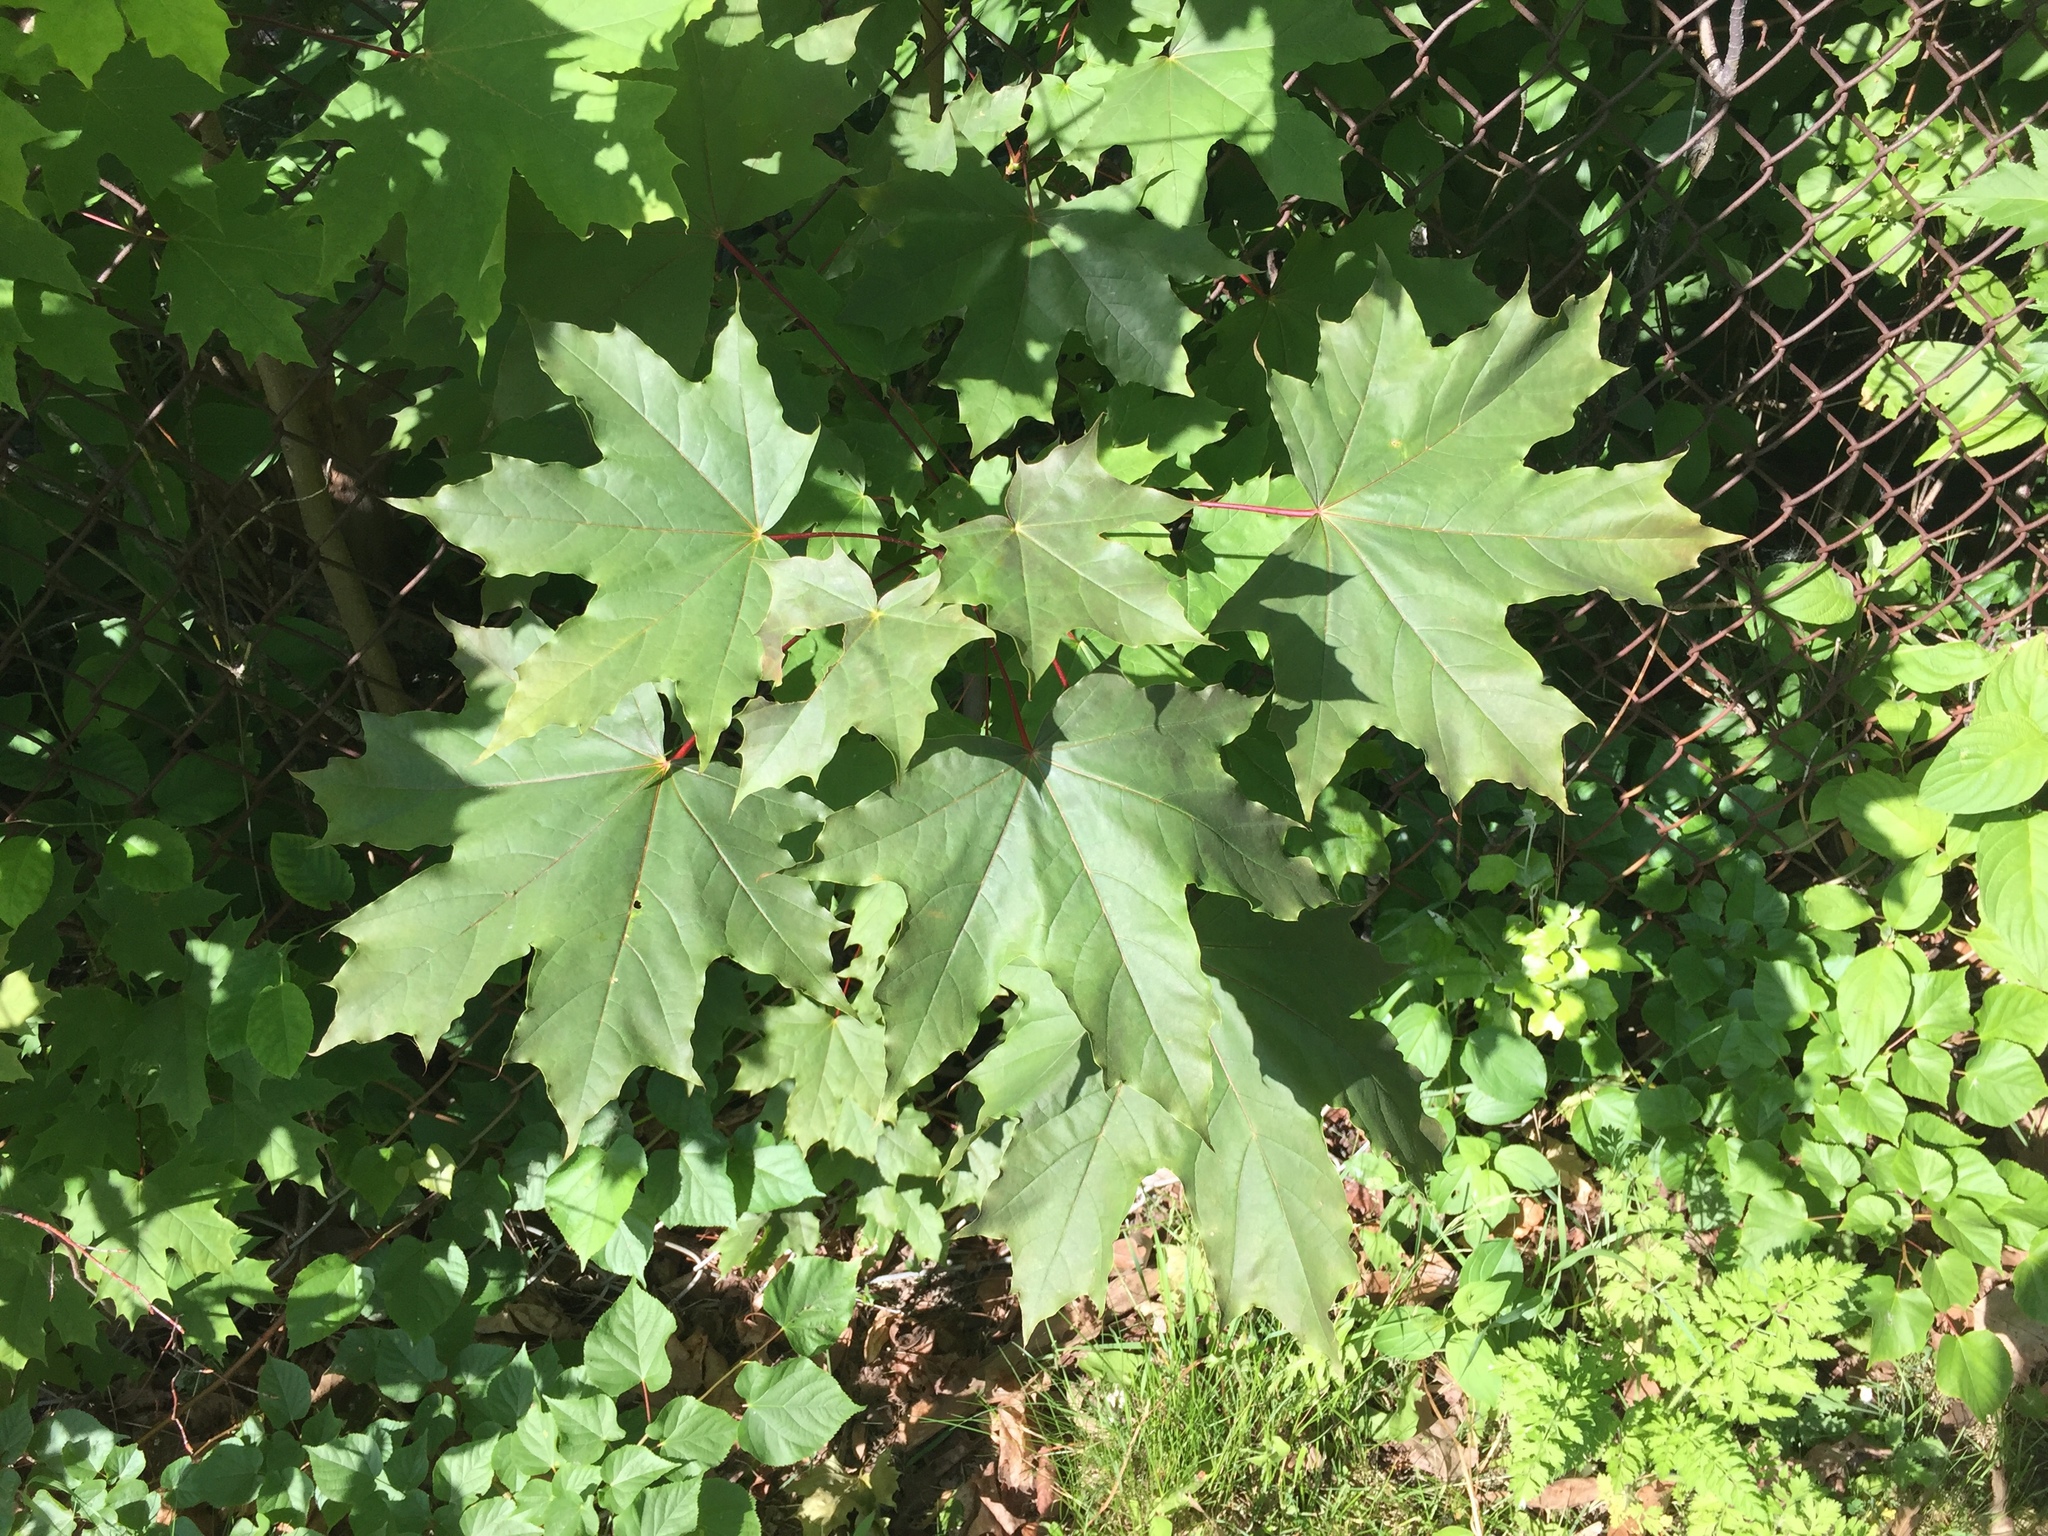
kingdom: Plantae
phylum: Tracheophyta
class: Magnoliopsida
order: Sapindales
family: Sapindaceae
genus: Acer
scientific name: Acer platanoides
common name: Norway maple
